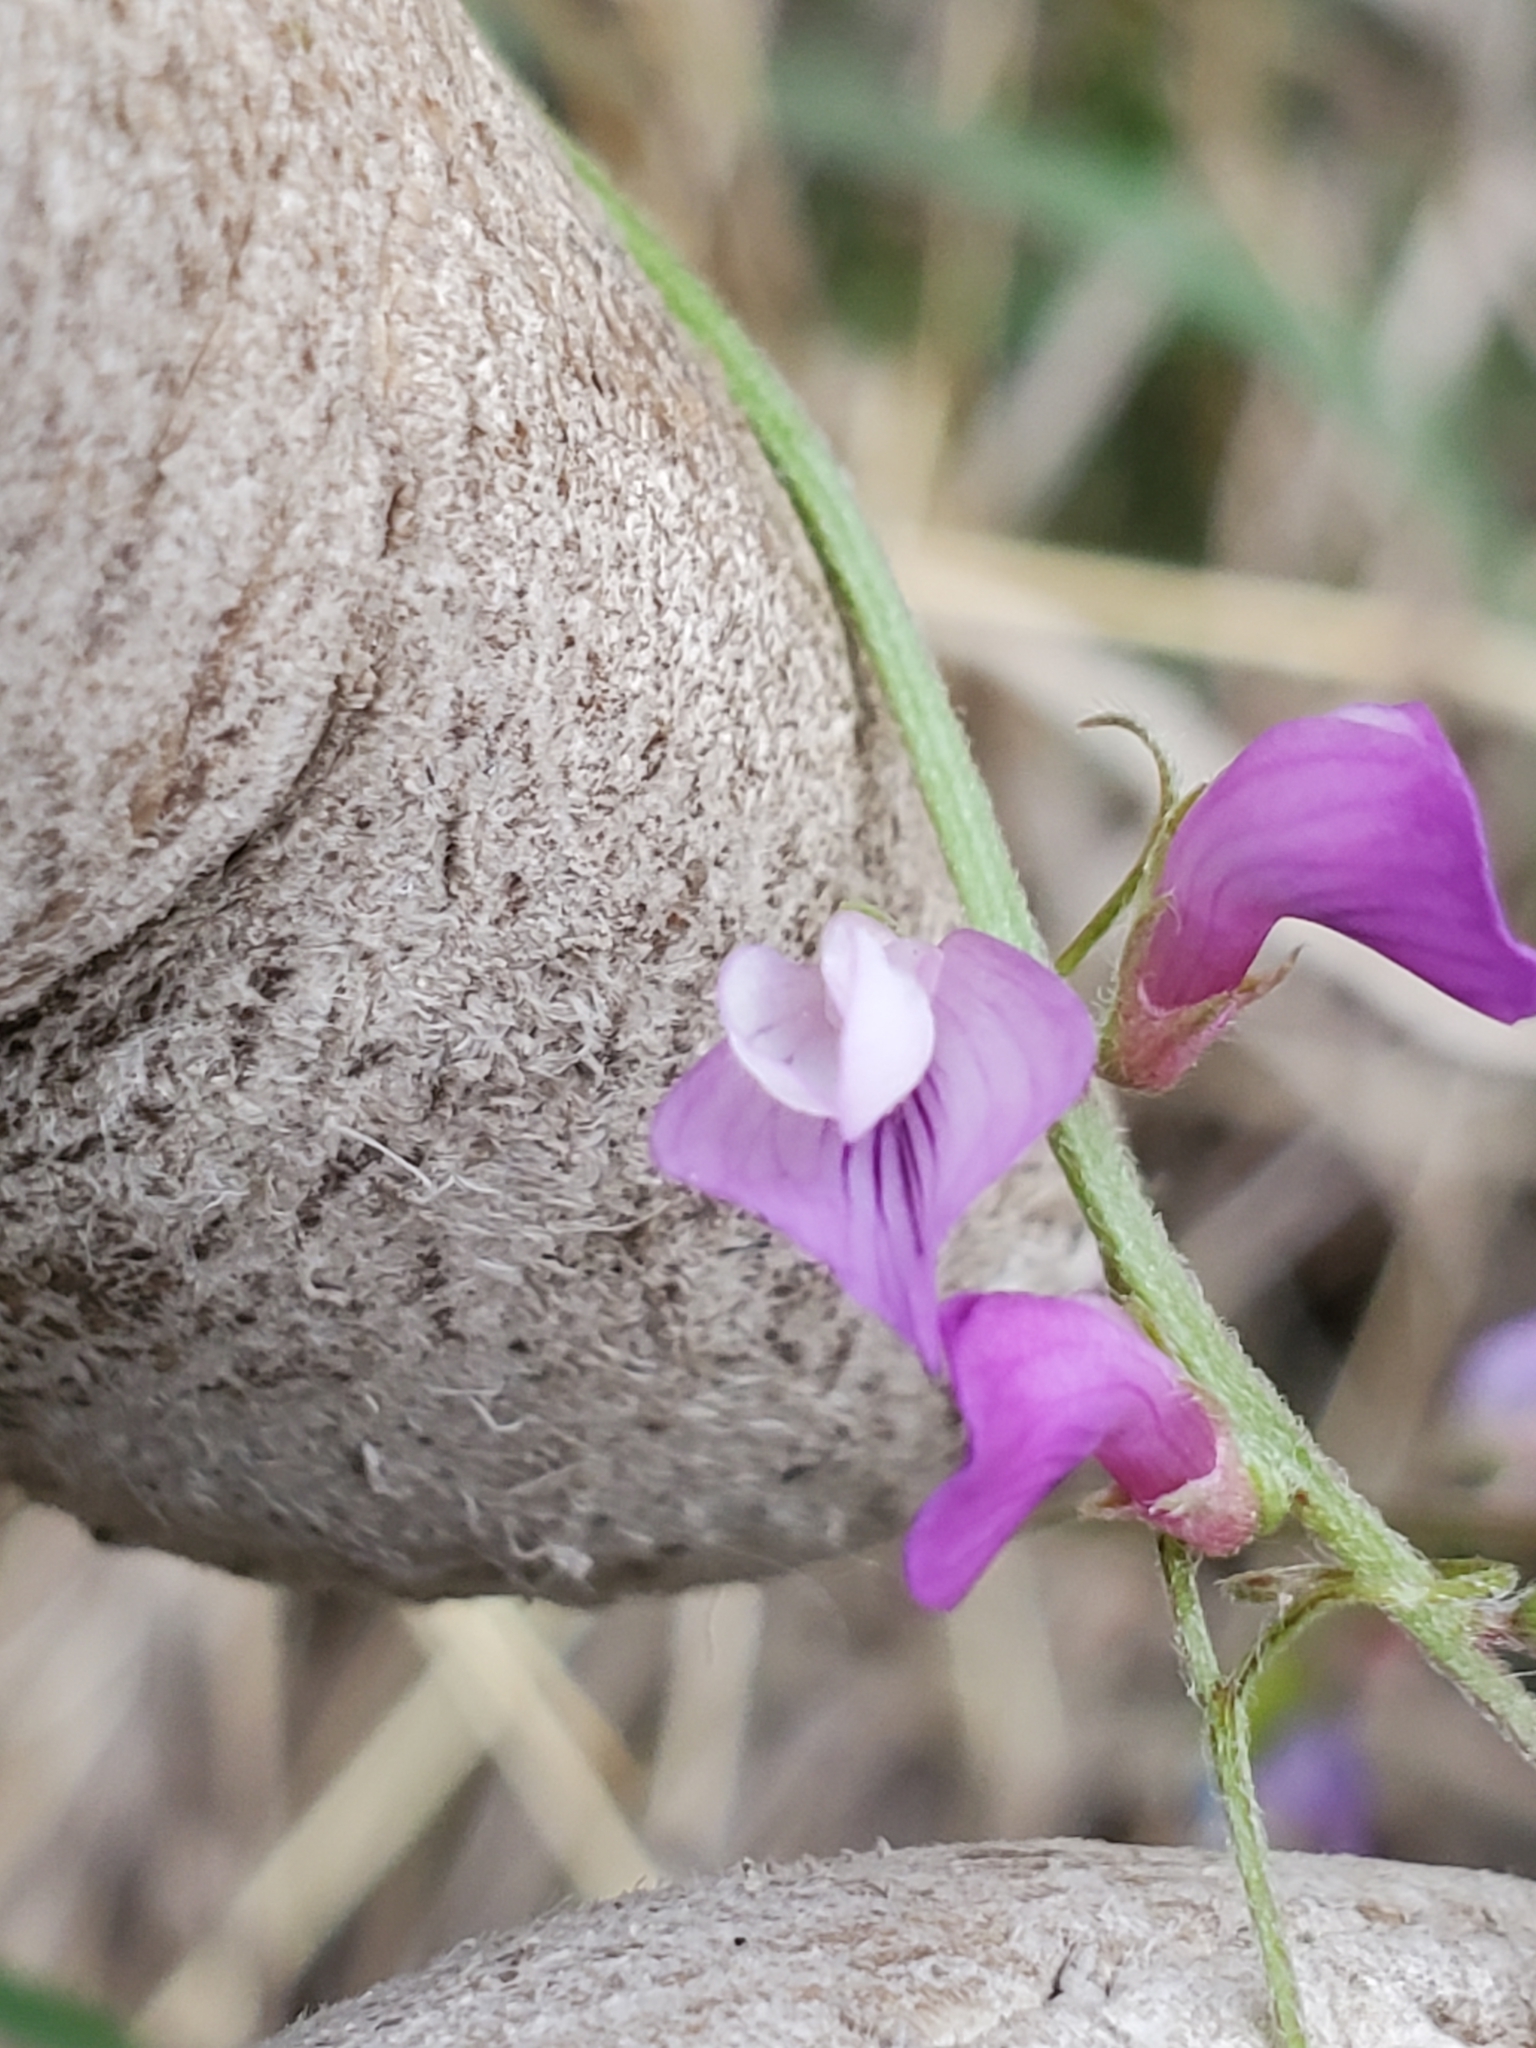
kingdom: Plantae
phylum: Tracheophyta
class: Magnoliopsida
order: Fabales
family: Fabaceae
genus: Vicia
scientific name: Vicia ludoviciana
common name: Louisiana vetch
